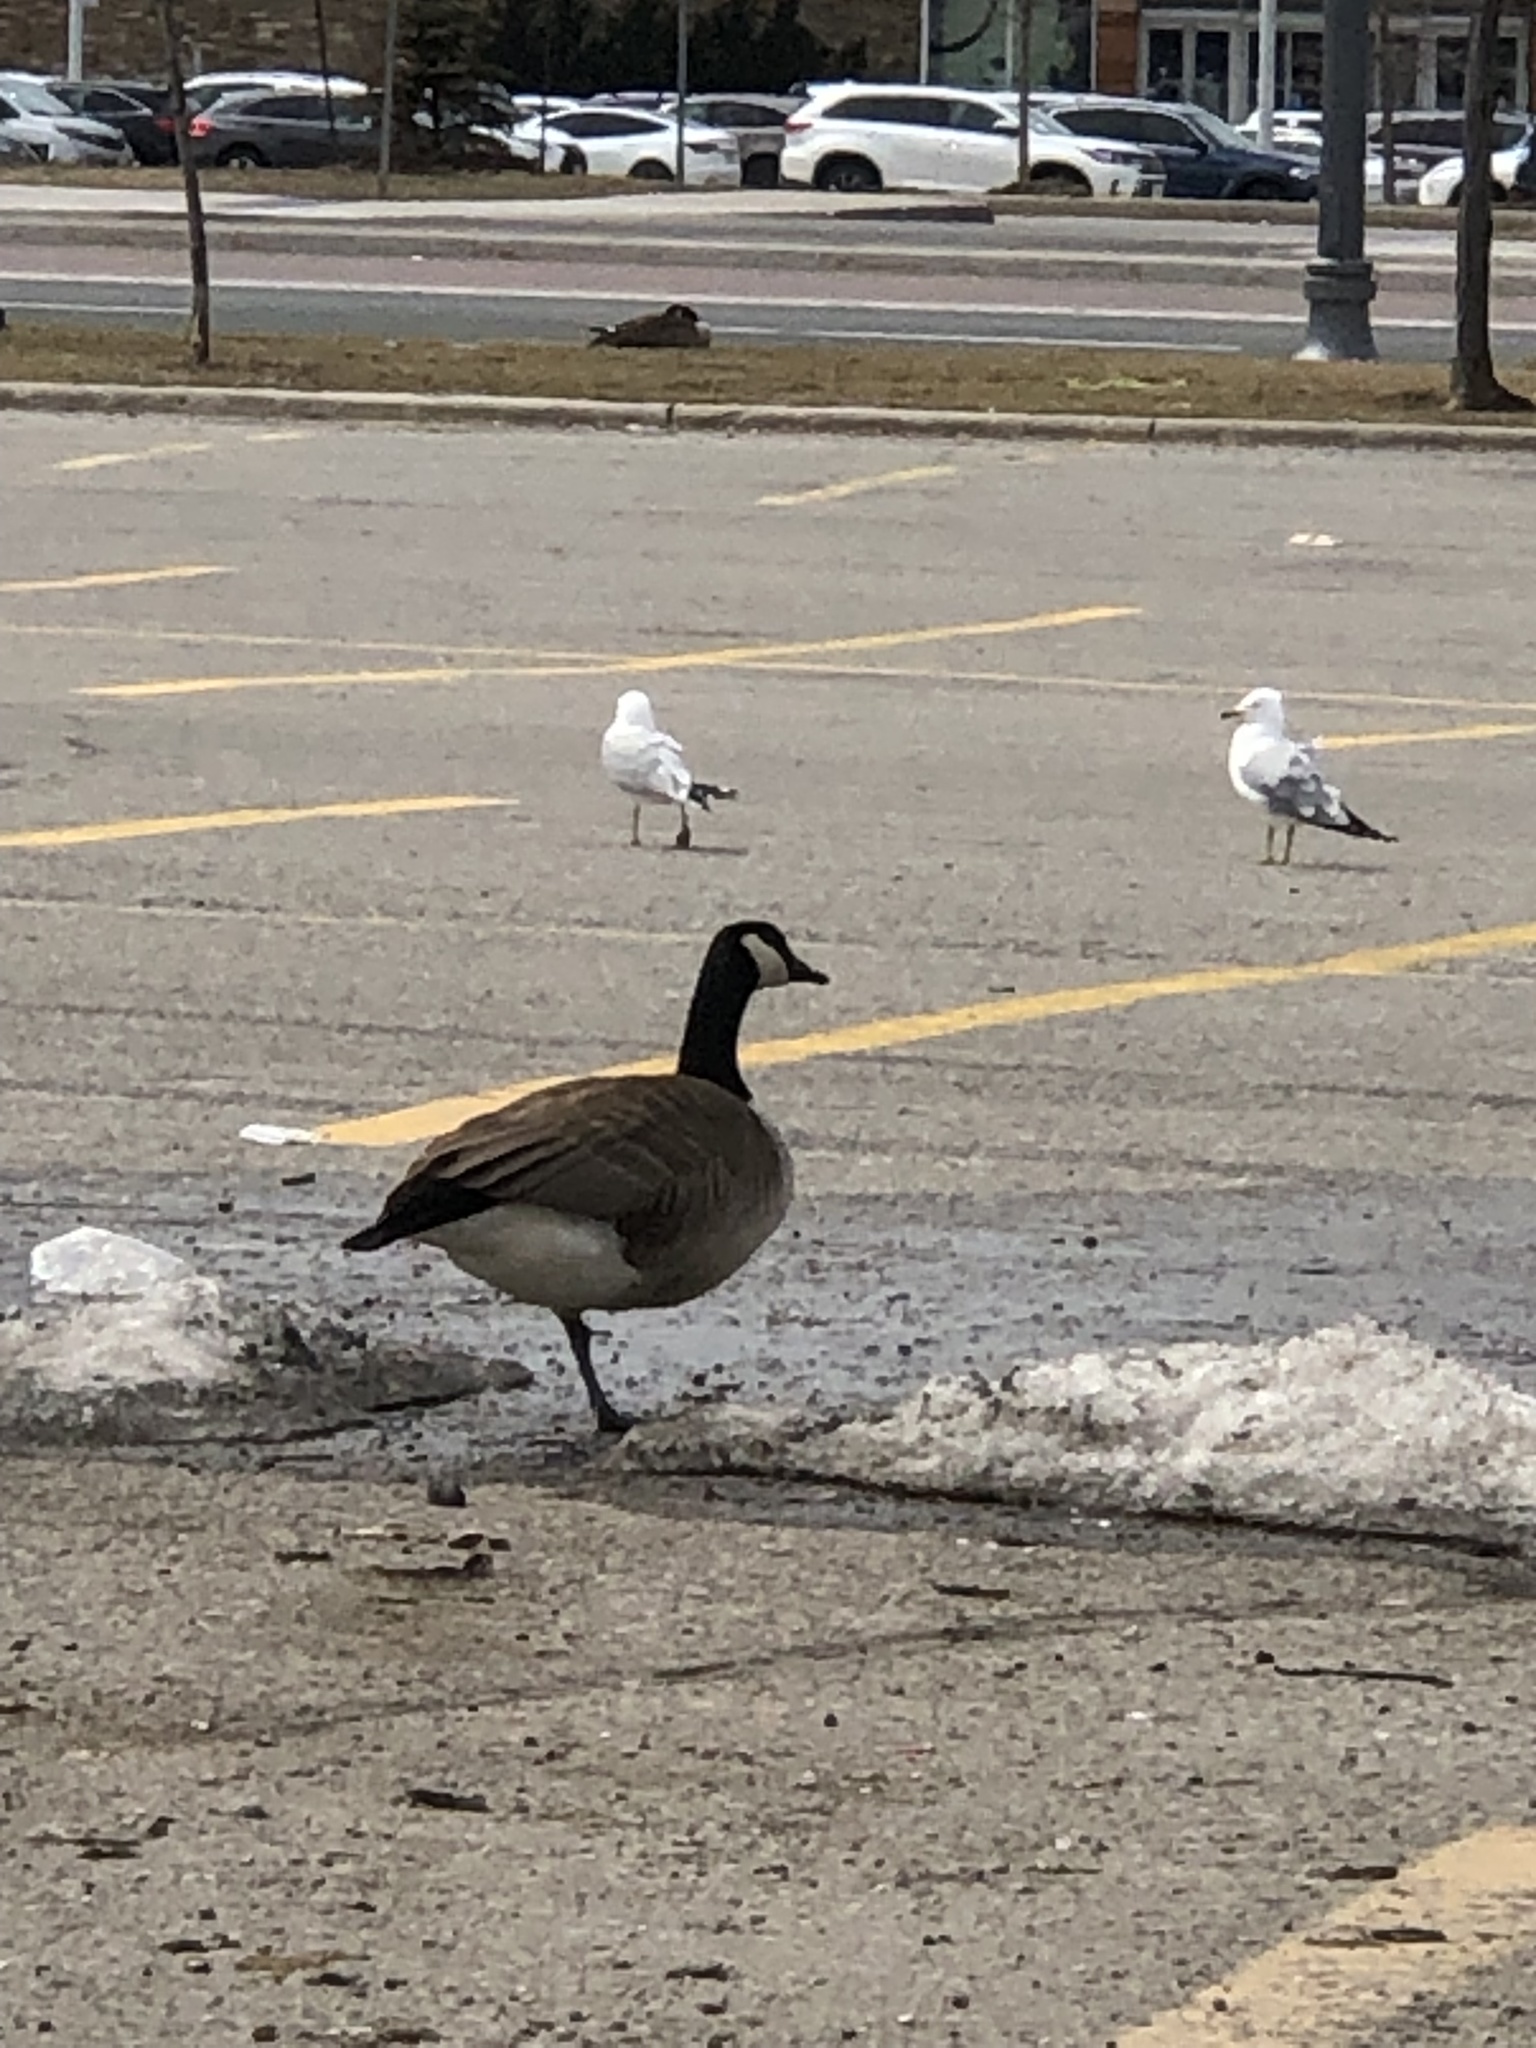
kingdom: Animalia
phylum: Chordata
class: Aves
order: Anseriformes
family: Anatidae
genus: Branta
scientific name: Branta canadensis
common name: Canada goose
